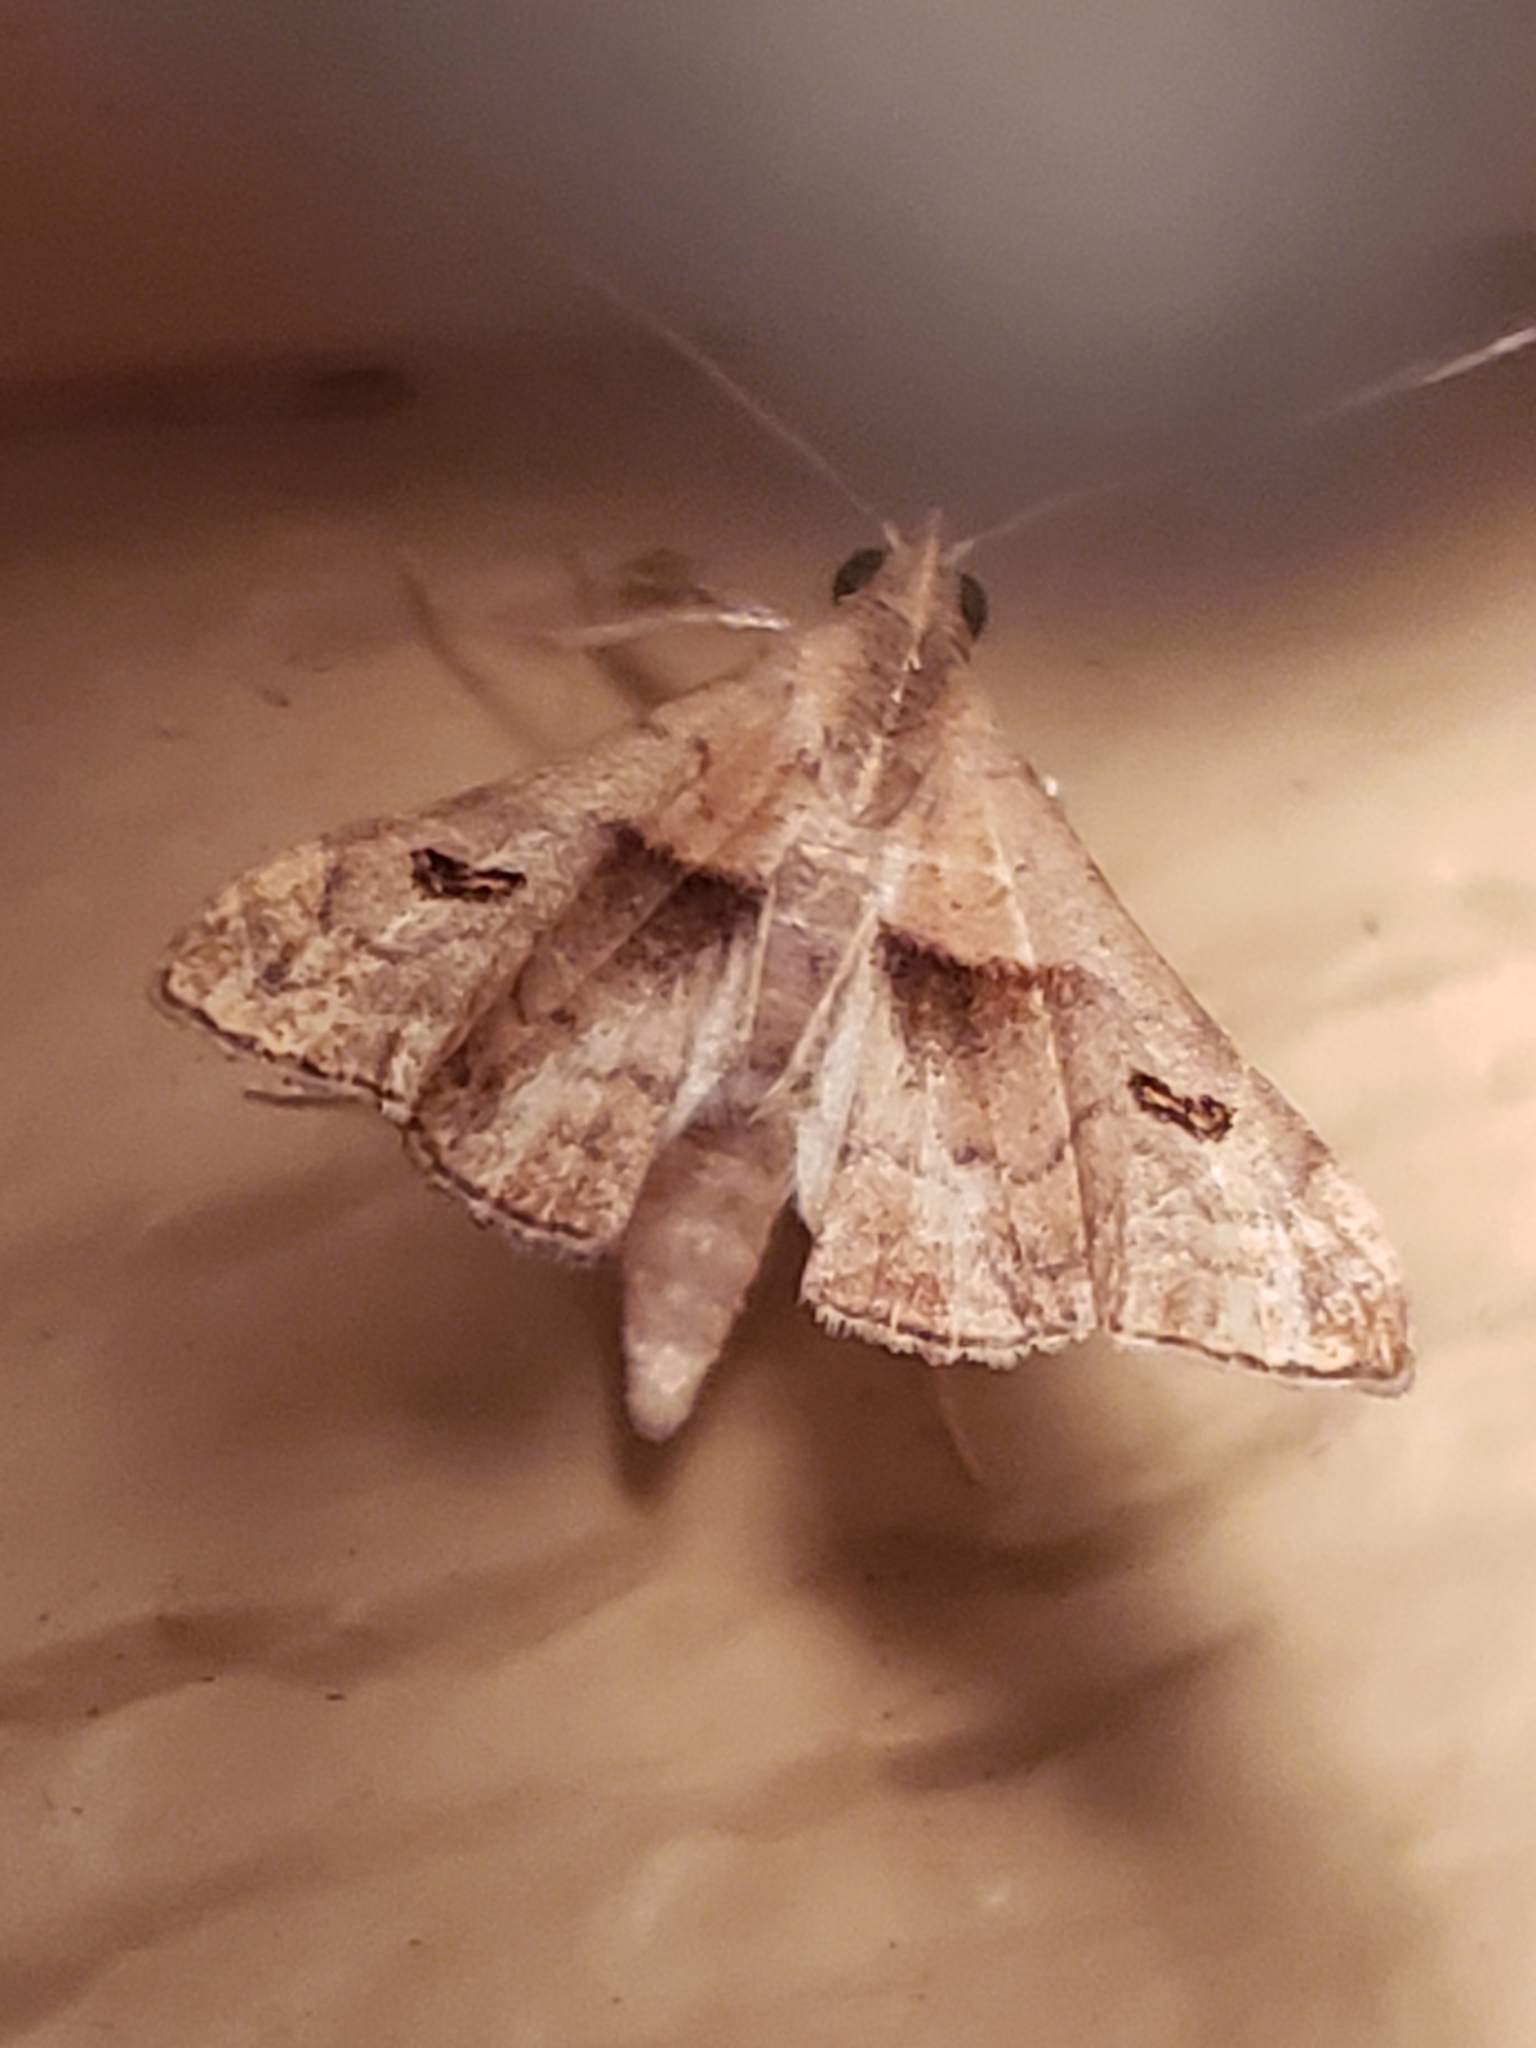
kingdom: Animalia
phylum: Arthropoda
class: Insecta
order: Lepidoptera
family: Erebidae
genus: Palthis
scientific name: Palthis angulalis
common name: Dark-spotted palthis moth
